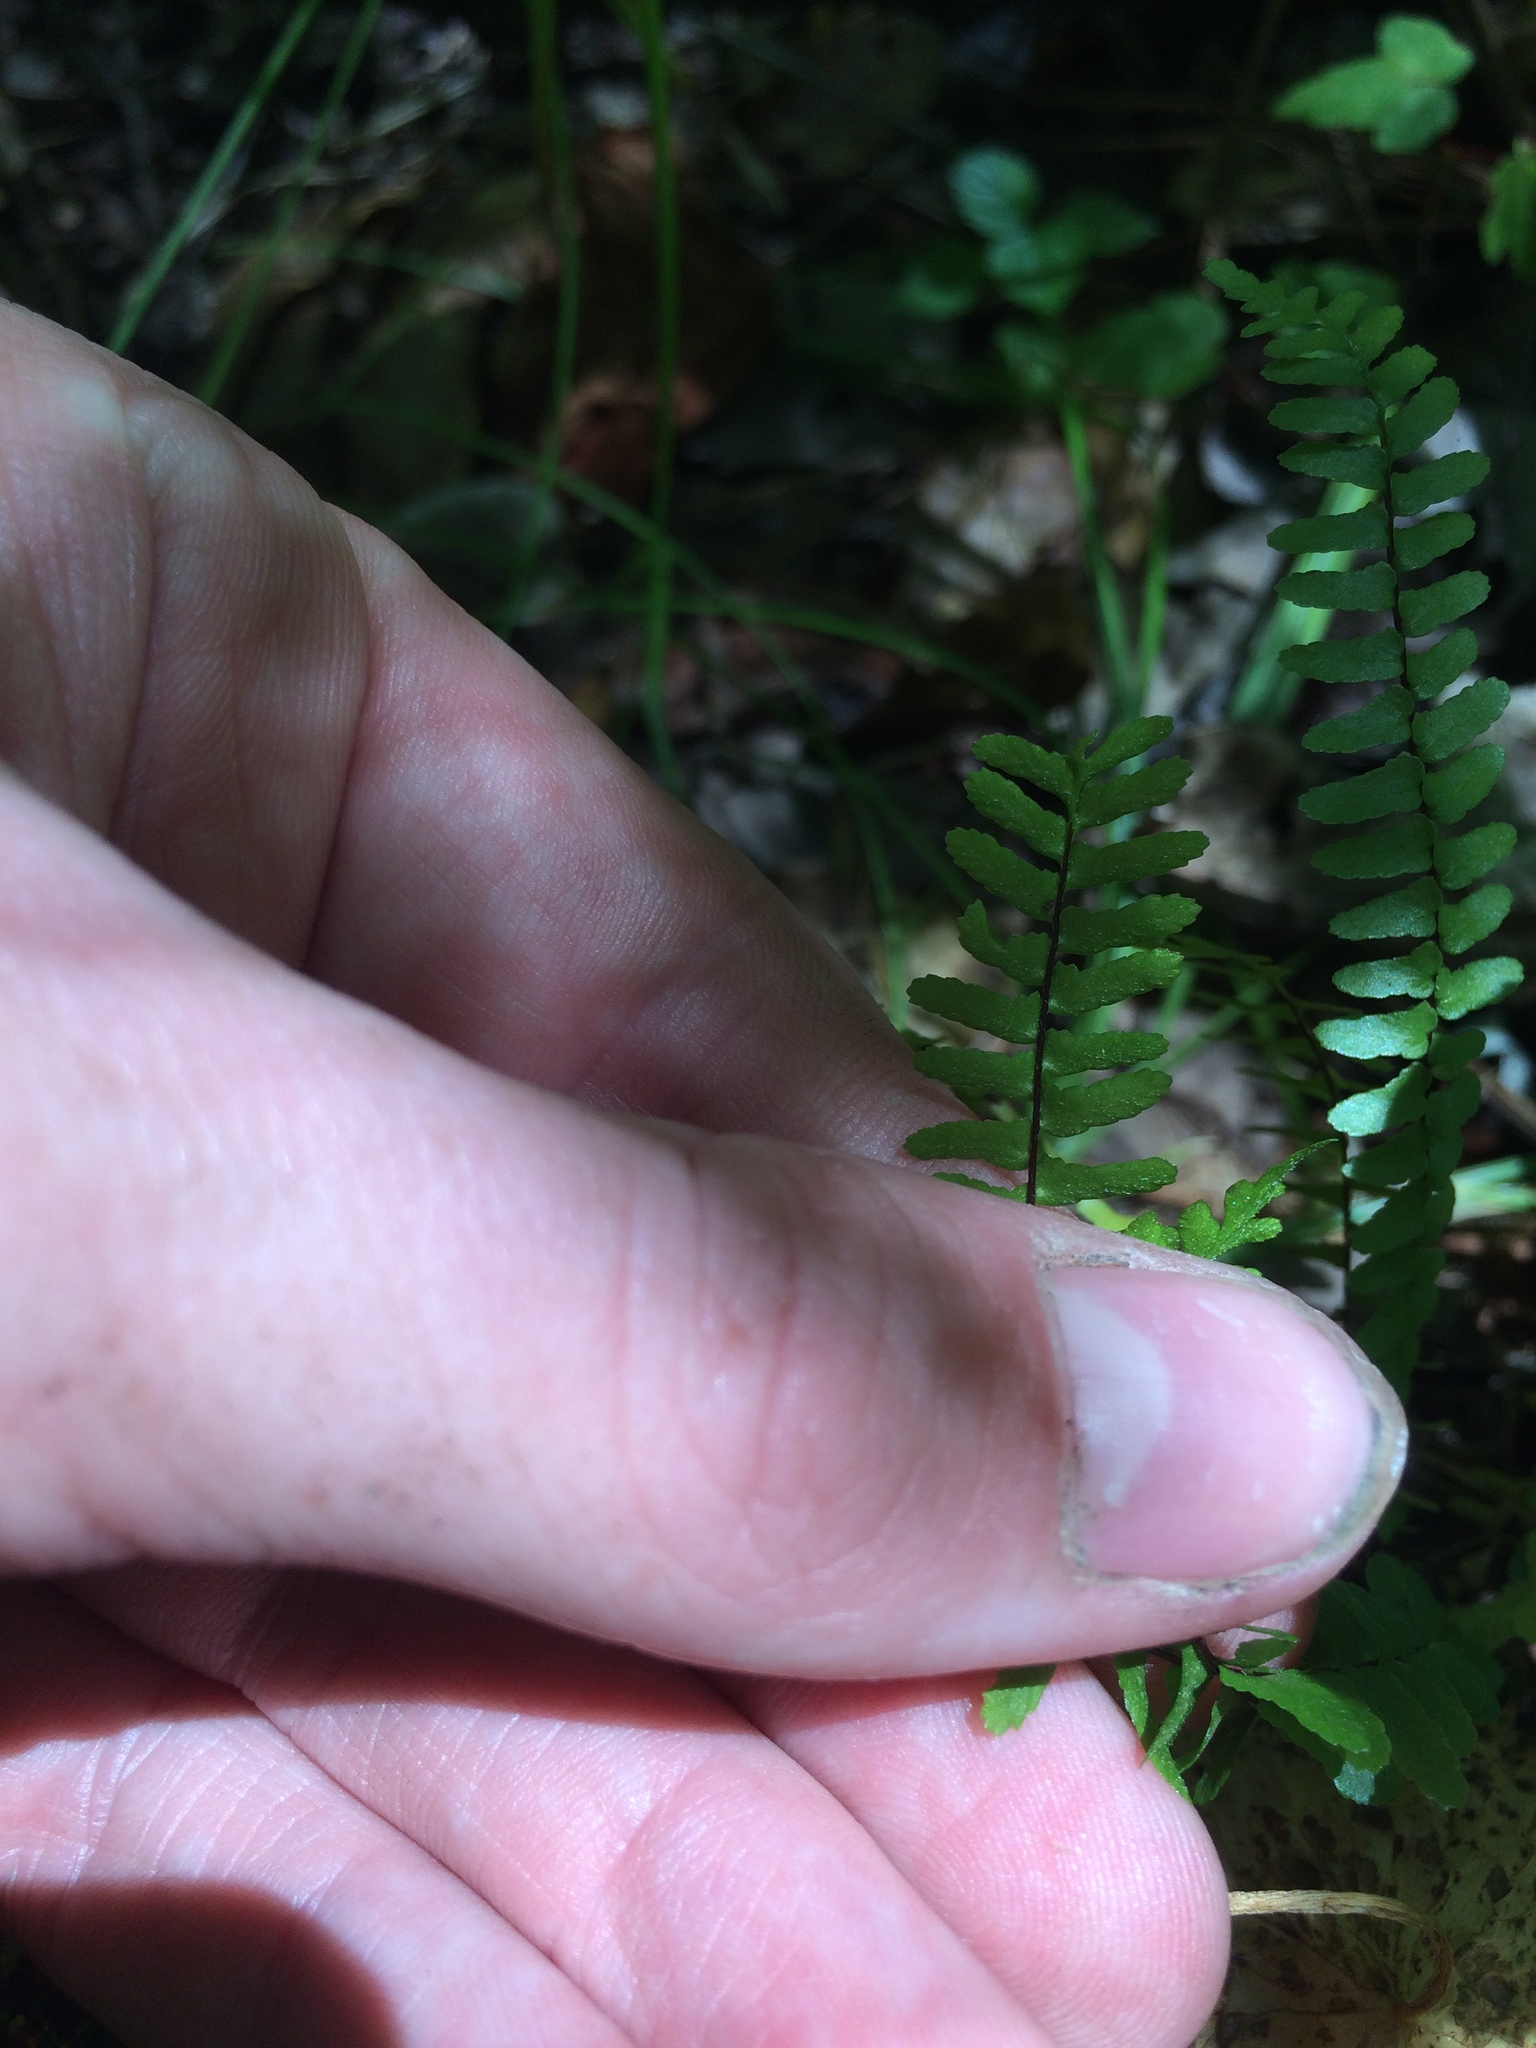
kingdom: Plantae
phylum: Tracheophyta
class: Polypodiopsida
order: Polypodiales
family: Aspleniaceae
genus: Asplenium
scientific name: Asplenium platyneuron
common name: Ebony spleenwort
